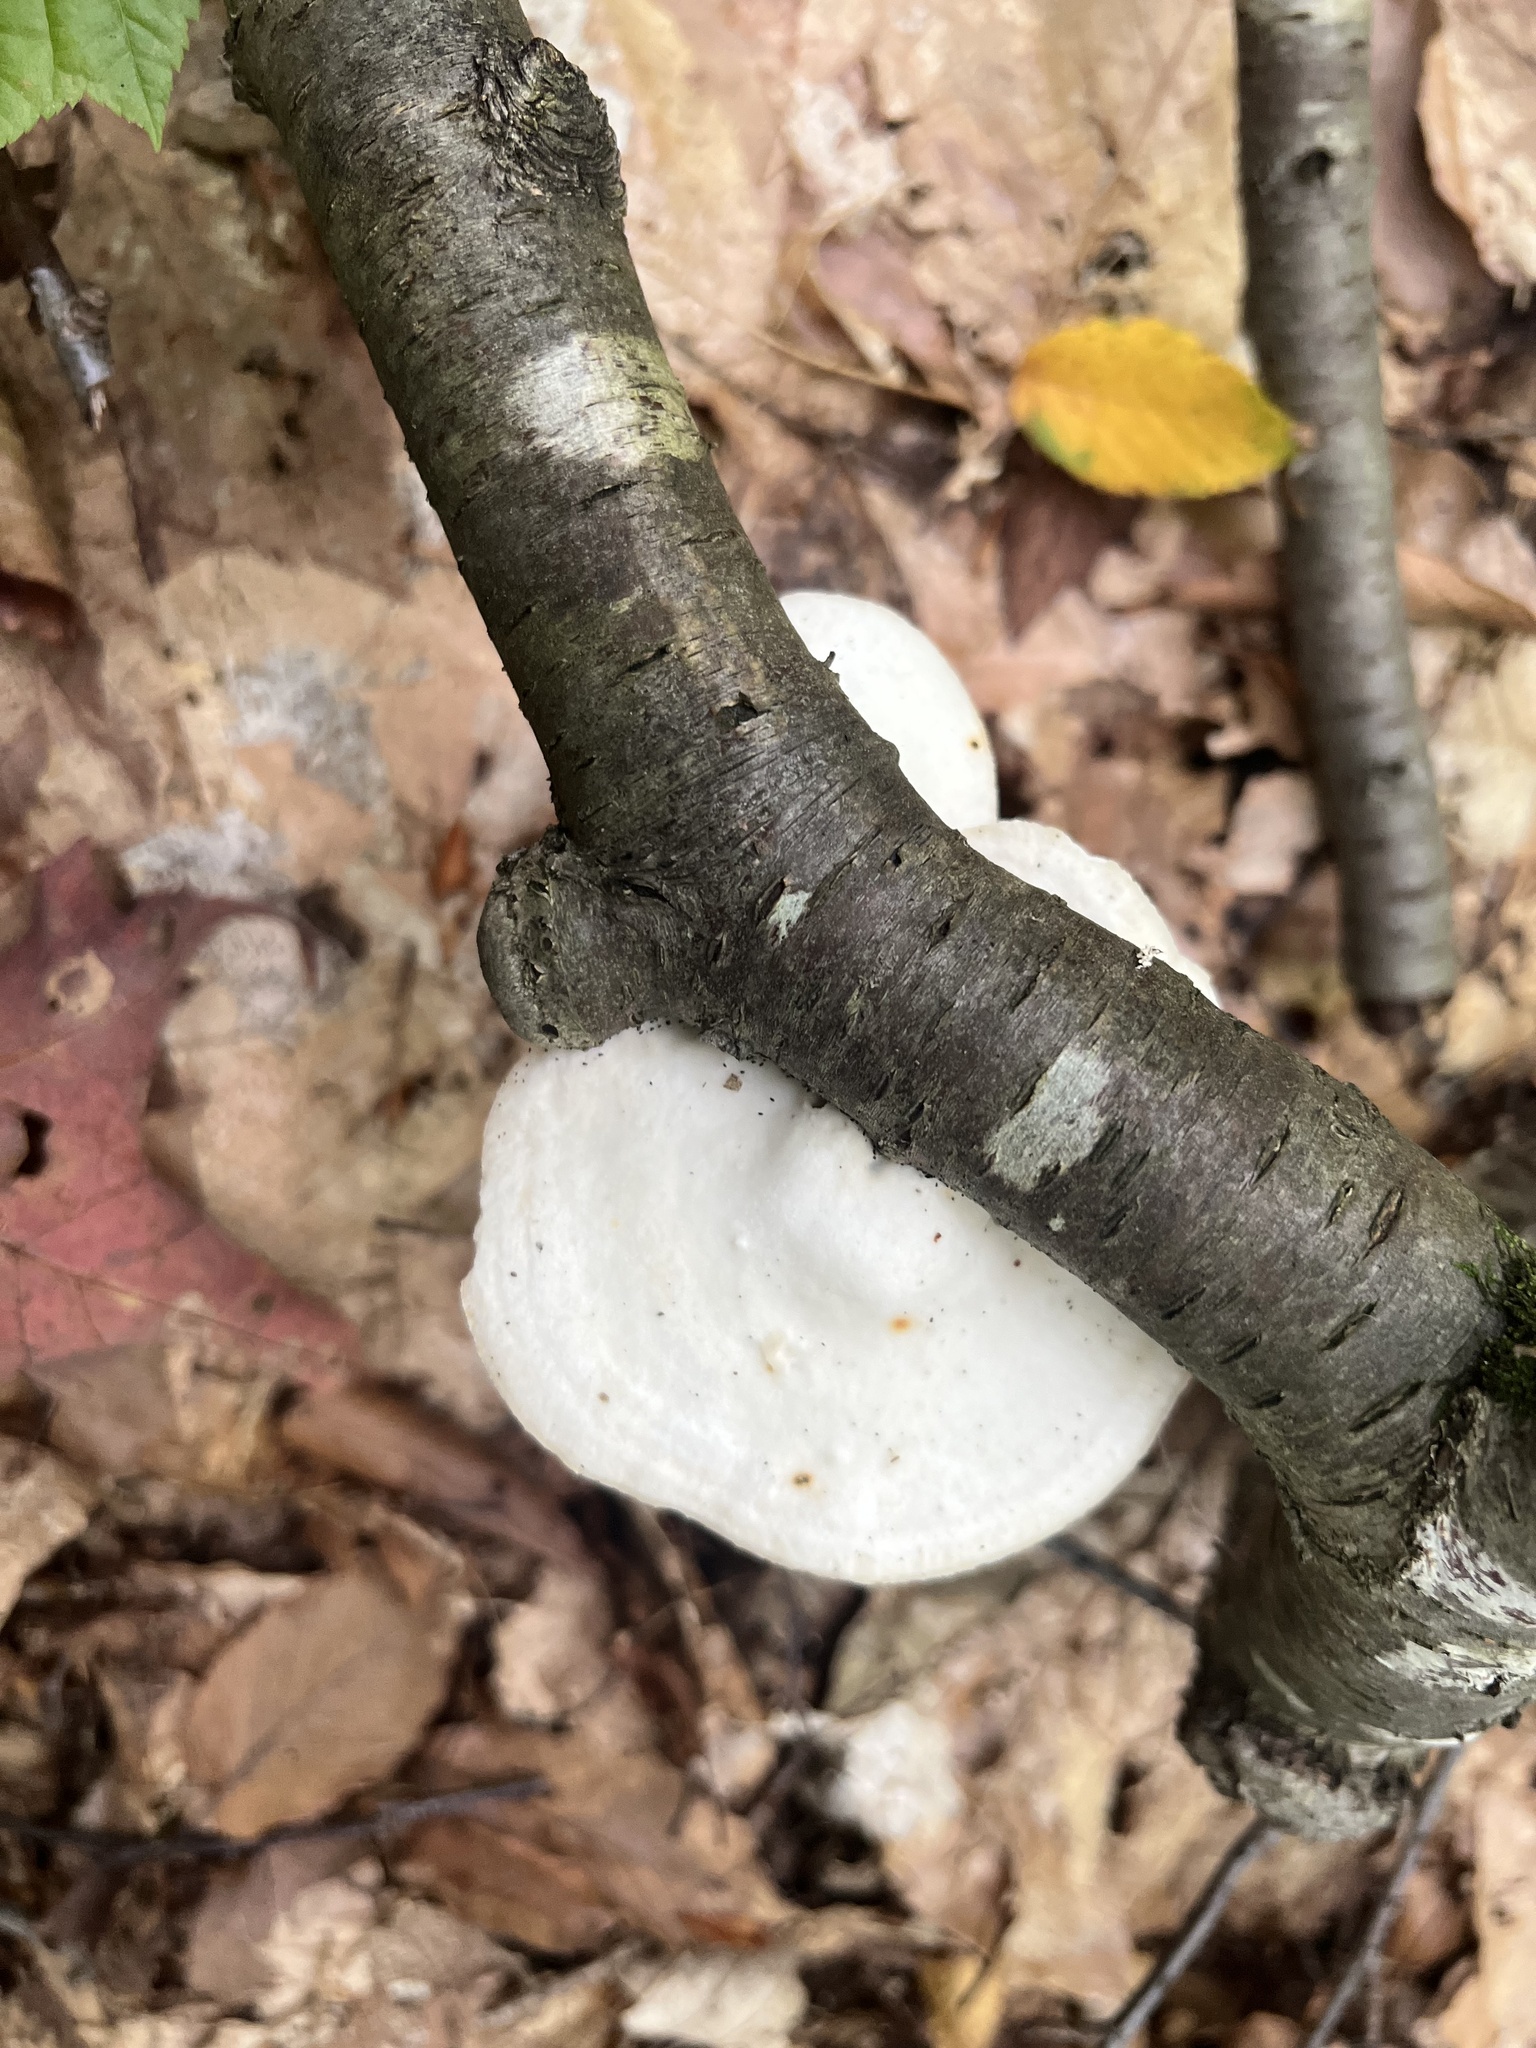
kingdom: Fungi
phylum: Basidiomycota
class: Agaricomycetes
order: Polyporales
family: Incrustoporiaceae
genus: Tyromyces
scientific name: Tyromyces chioneus
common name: White cheese polypore
